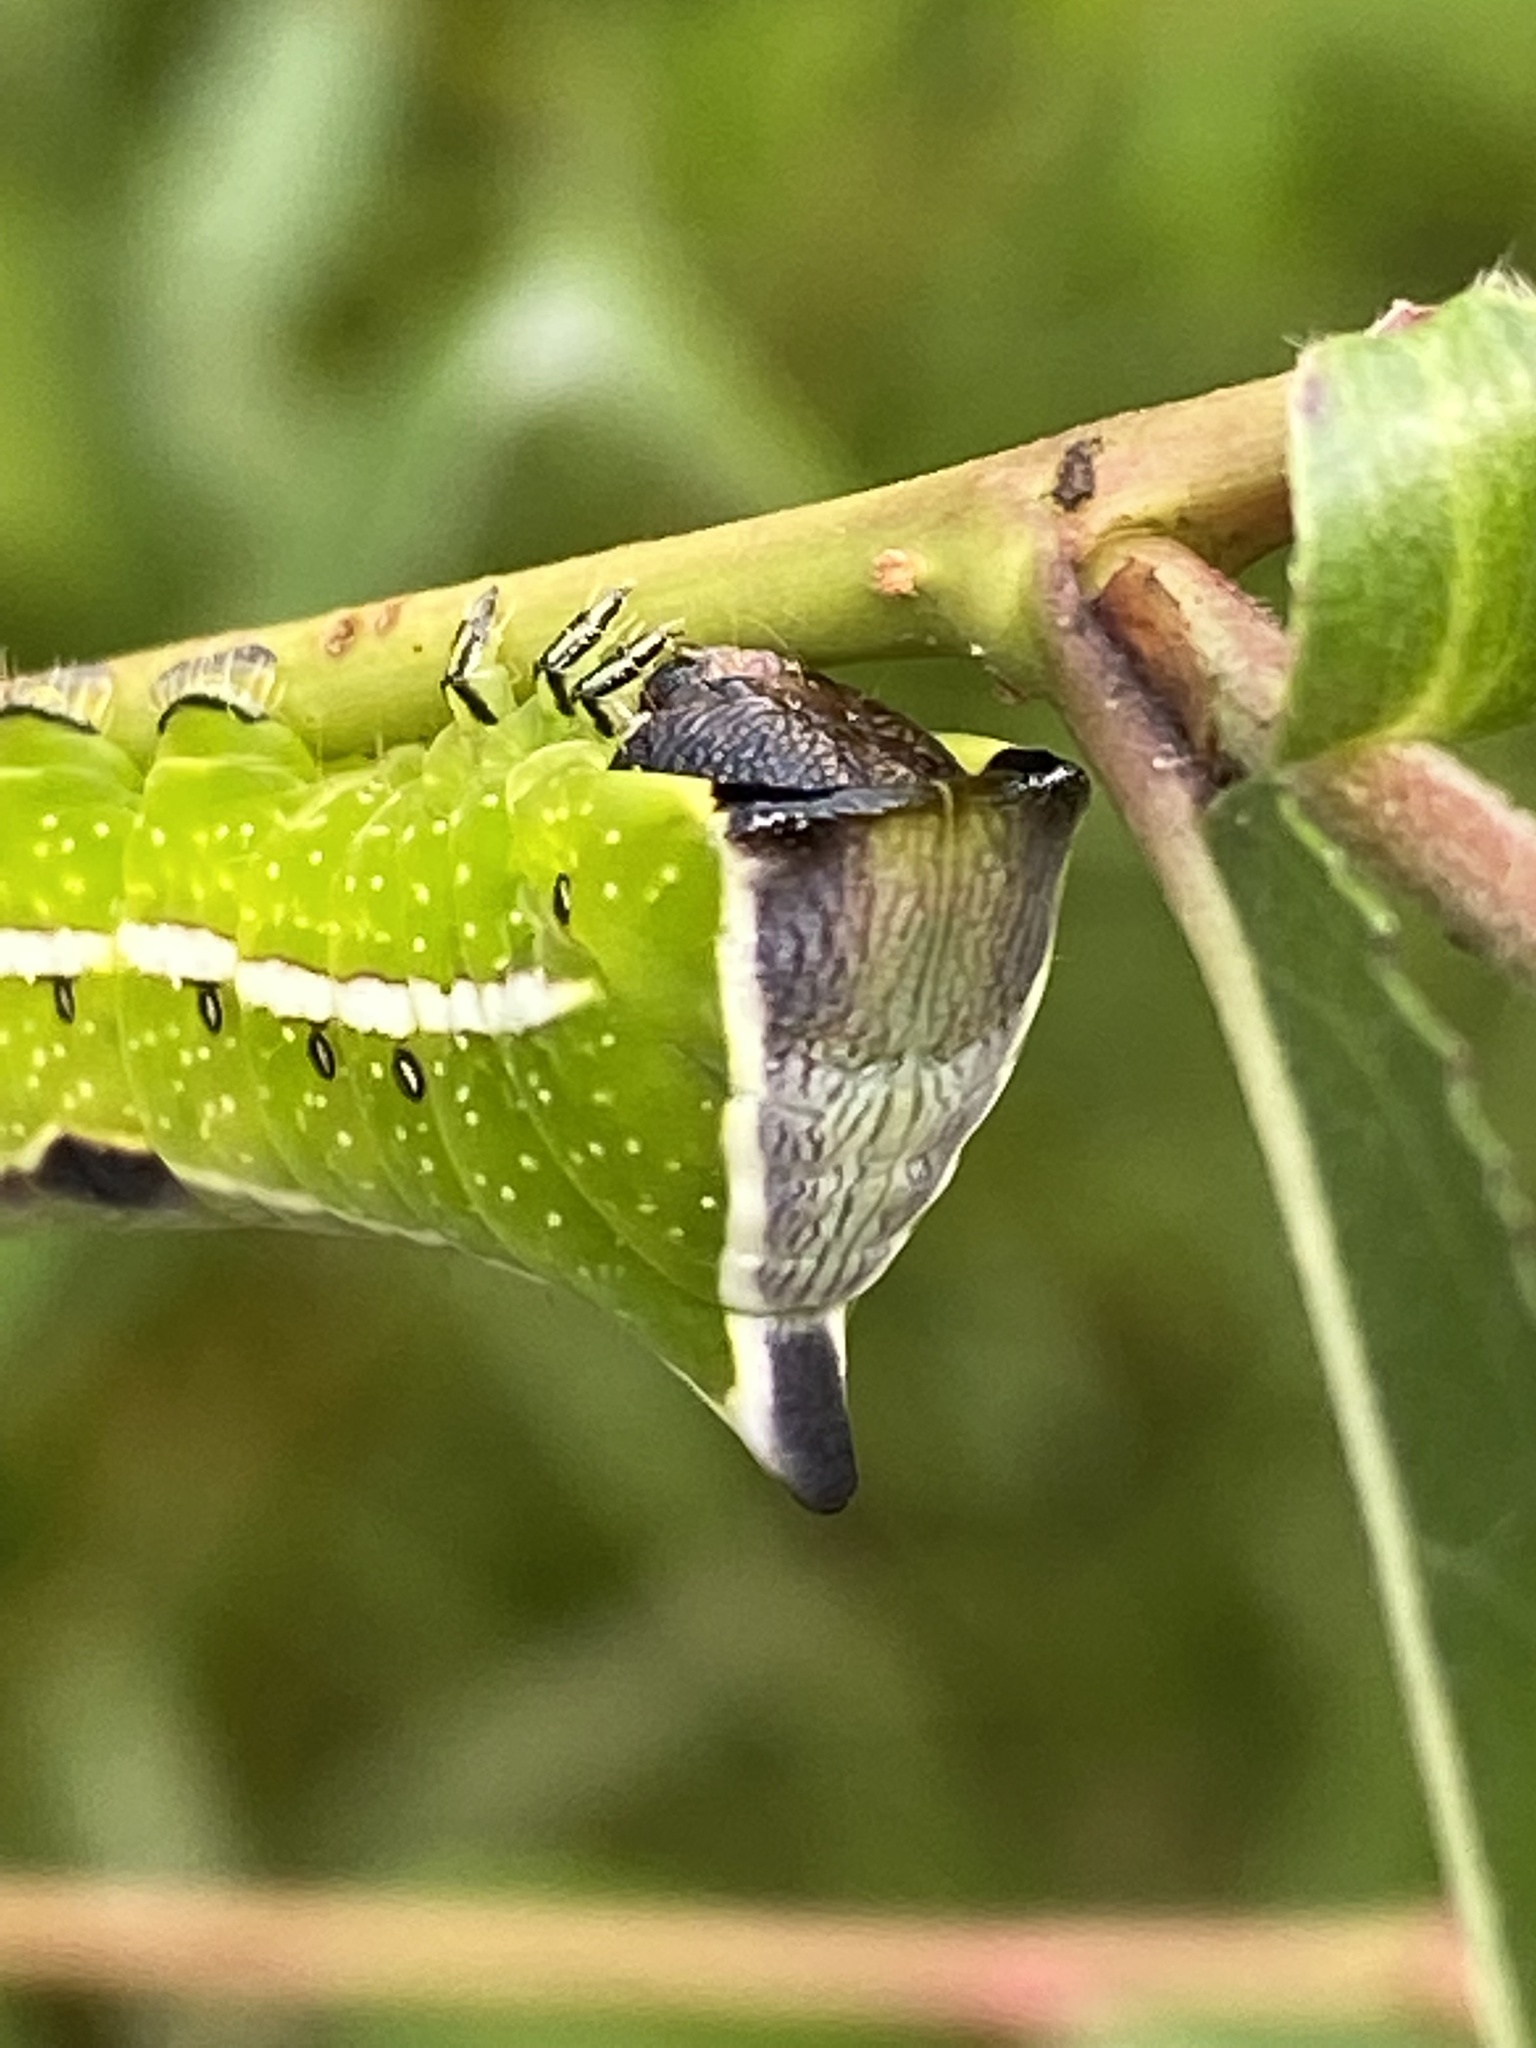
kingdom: Animalia
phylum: Arthropoda
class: Insecta
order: Lepidoptera
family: Notodontidae
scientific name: Notodontidae
